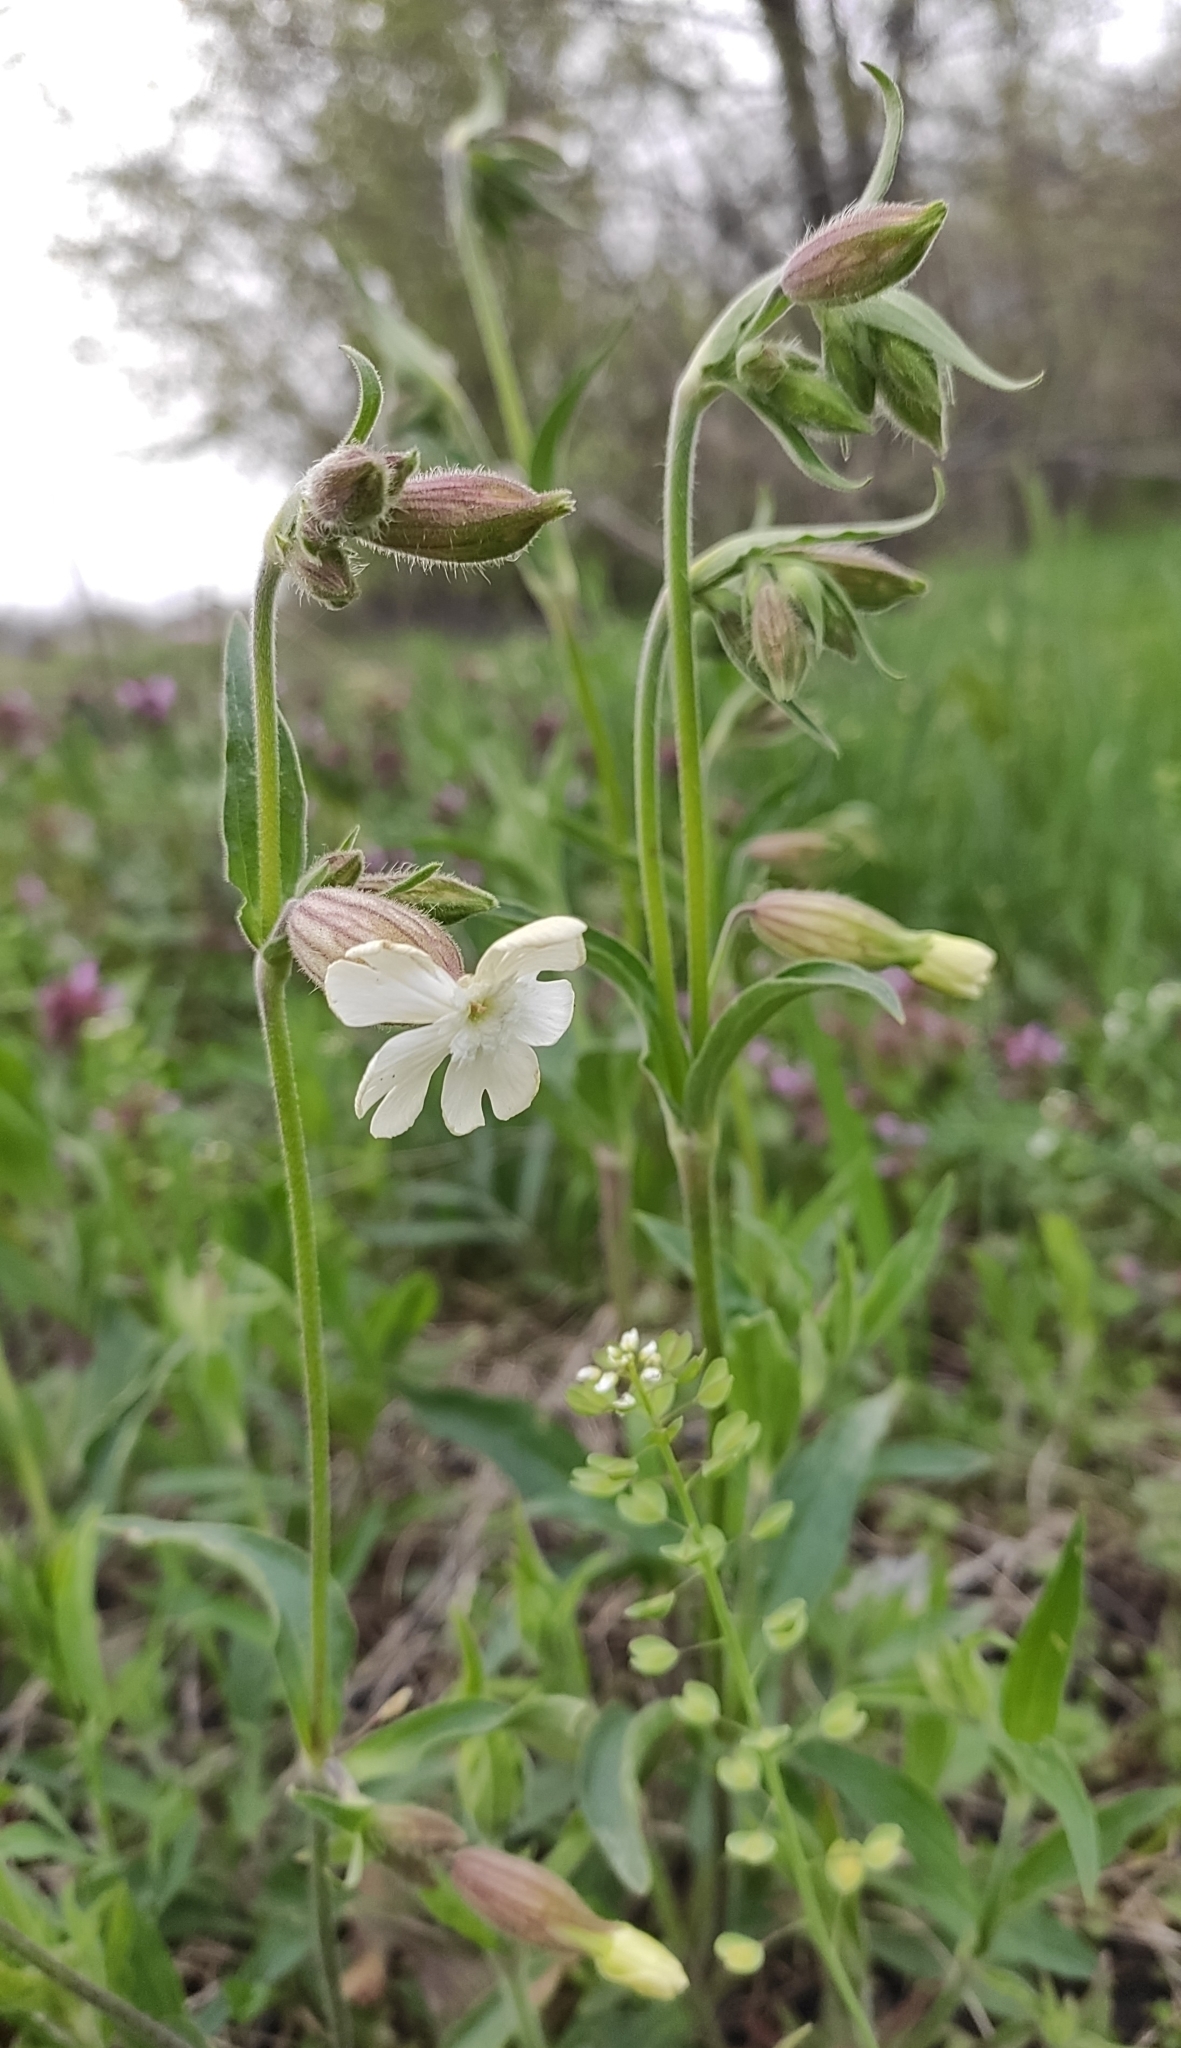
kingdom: Plantae
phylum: Tracheophyta
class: Magnoliopsida
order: Caryophyllales
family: Caryophyllaceae
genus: Silene
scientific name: Silene latifolia
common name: White campion
